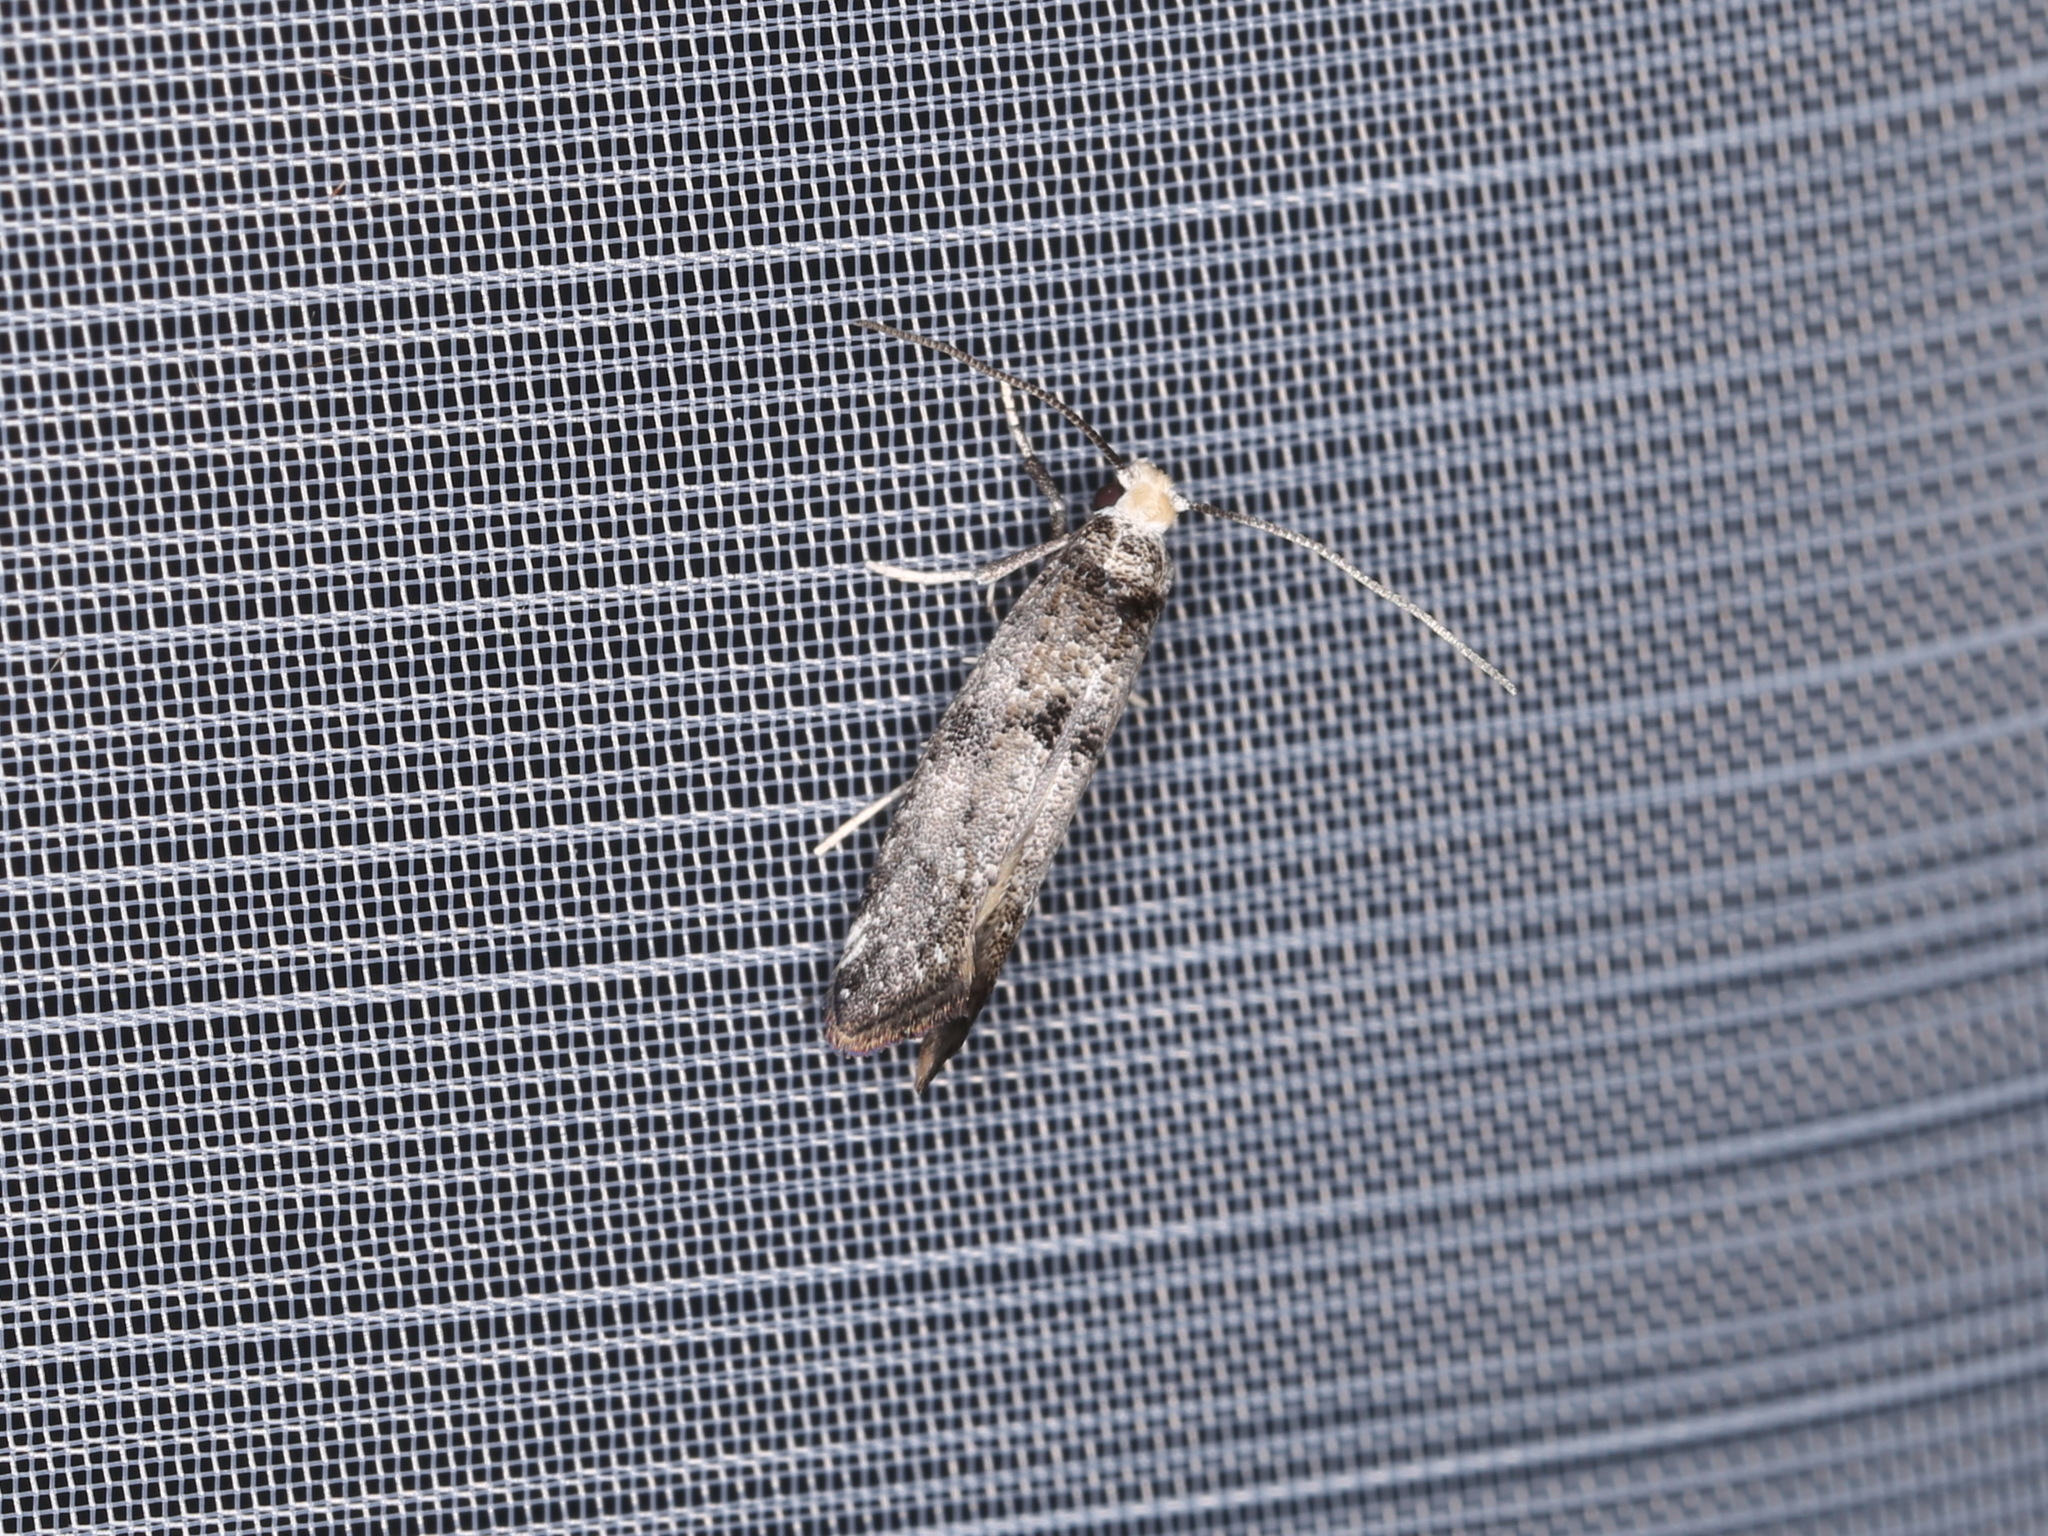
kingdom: Animalia
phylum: Arthropoda
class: Insecta
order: Lepidoptera
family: Yponomeutidae
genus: Swammerdamia
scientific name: Swammerdamia pyrella
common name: Little ermine moth
